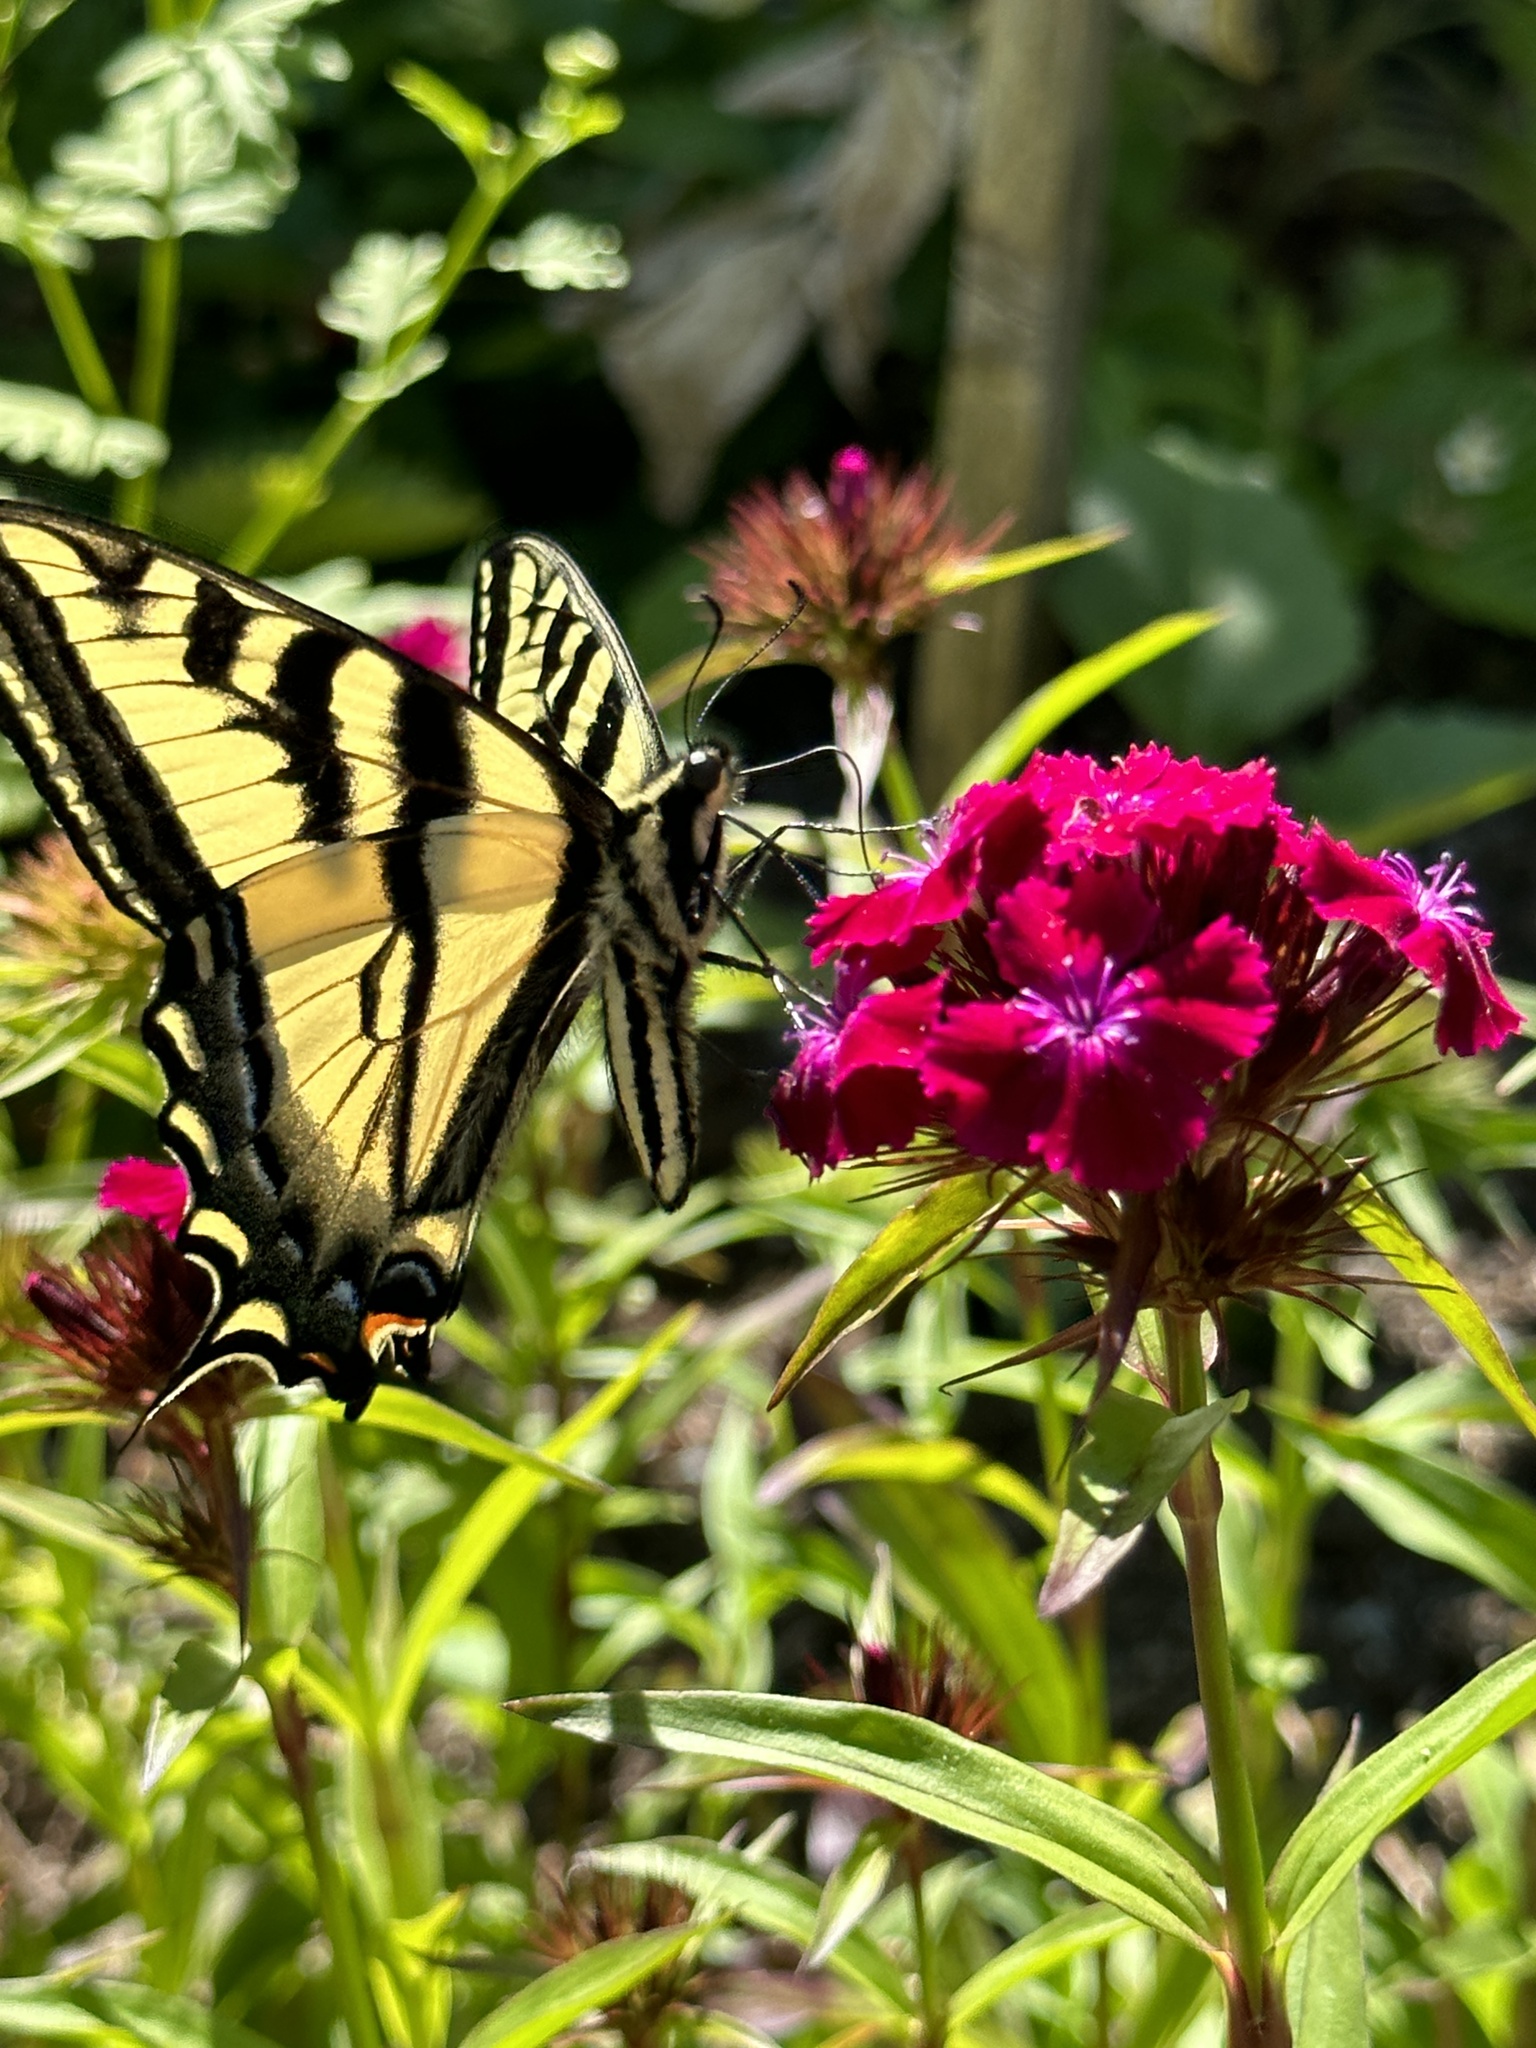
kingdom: Plantae
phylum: Tracheophyta
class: Magnoliopsida
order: Caryophyllales
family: Caryophyllaceae
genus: Dianthus
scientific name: Dianthus barbatus
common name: Sweet-william
